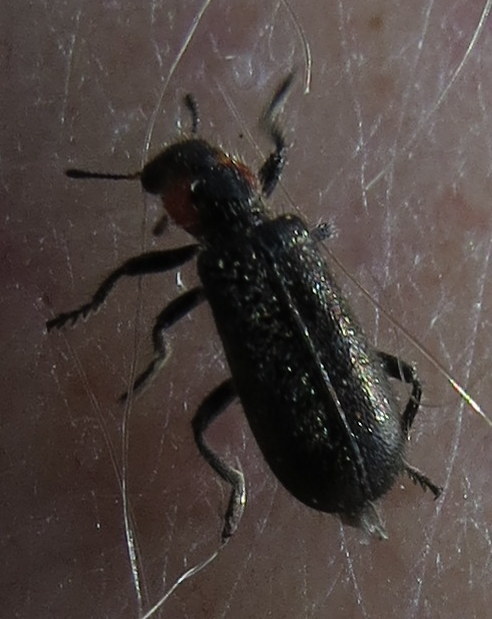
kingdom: Animalia
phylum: Arthropoda
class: Insecta
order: Coleoptera
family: Cleridae
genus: Placopterus
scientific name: Placopterus thoracicus
